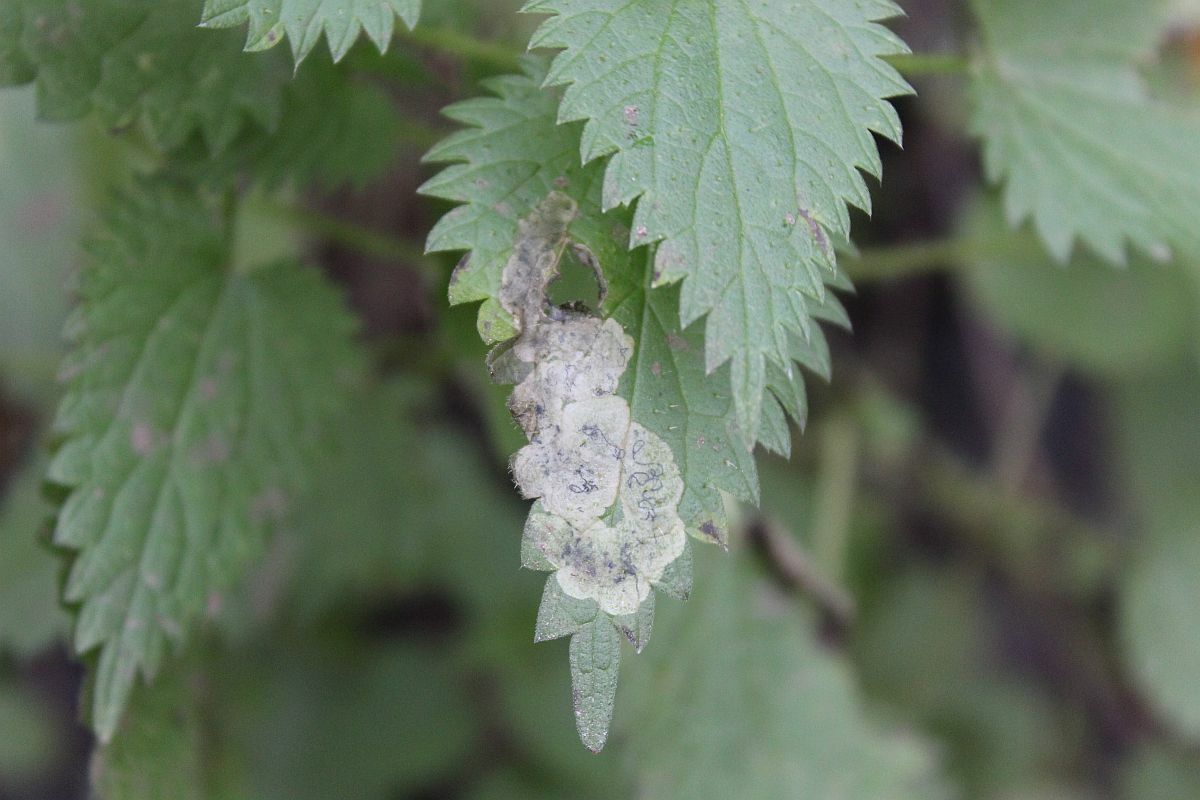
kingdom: Animalia
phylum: Arthropoda
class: Insecta
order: Diptera
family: Agromyzidae
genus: Agromyza
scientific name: Agromyza anthracina
